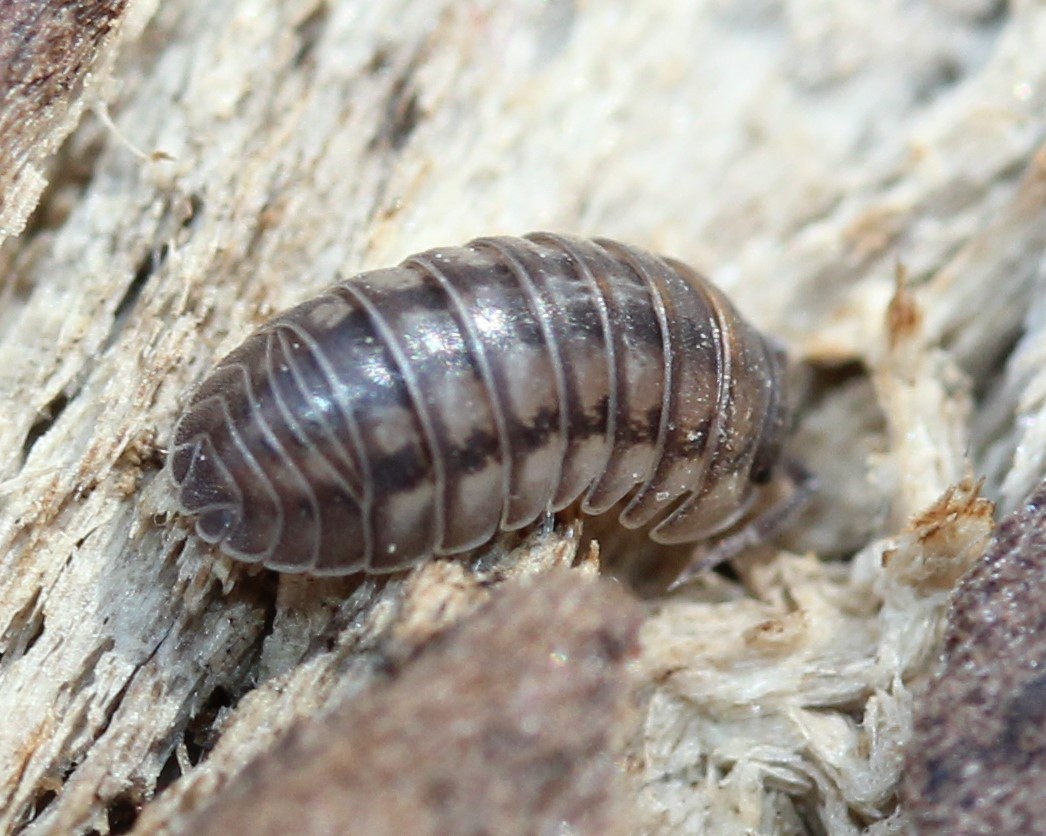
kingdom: Animalia
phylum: Arthropoda
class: Malacostraca
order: Isopoda
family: Armadillidiidae
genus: Armadillidium
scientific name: Armadillidium nasatum
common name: Isopod
